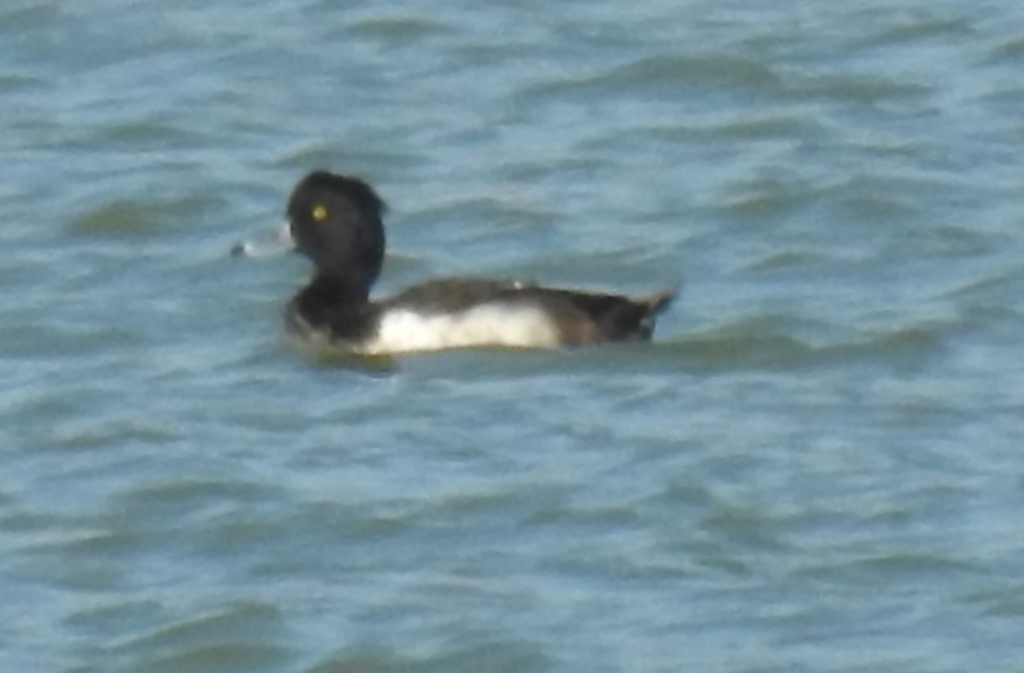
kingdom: Animalia
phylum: Chordata
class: Aves
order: Anseriformes
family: Anatidae
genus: Aythya
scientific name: Aythya fuligula
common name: Tufted duck
